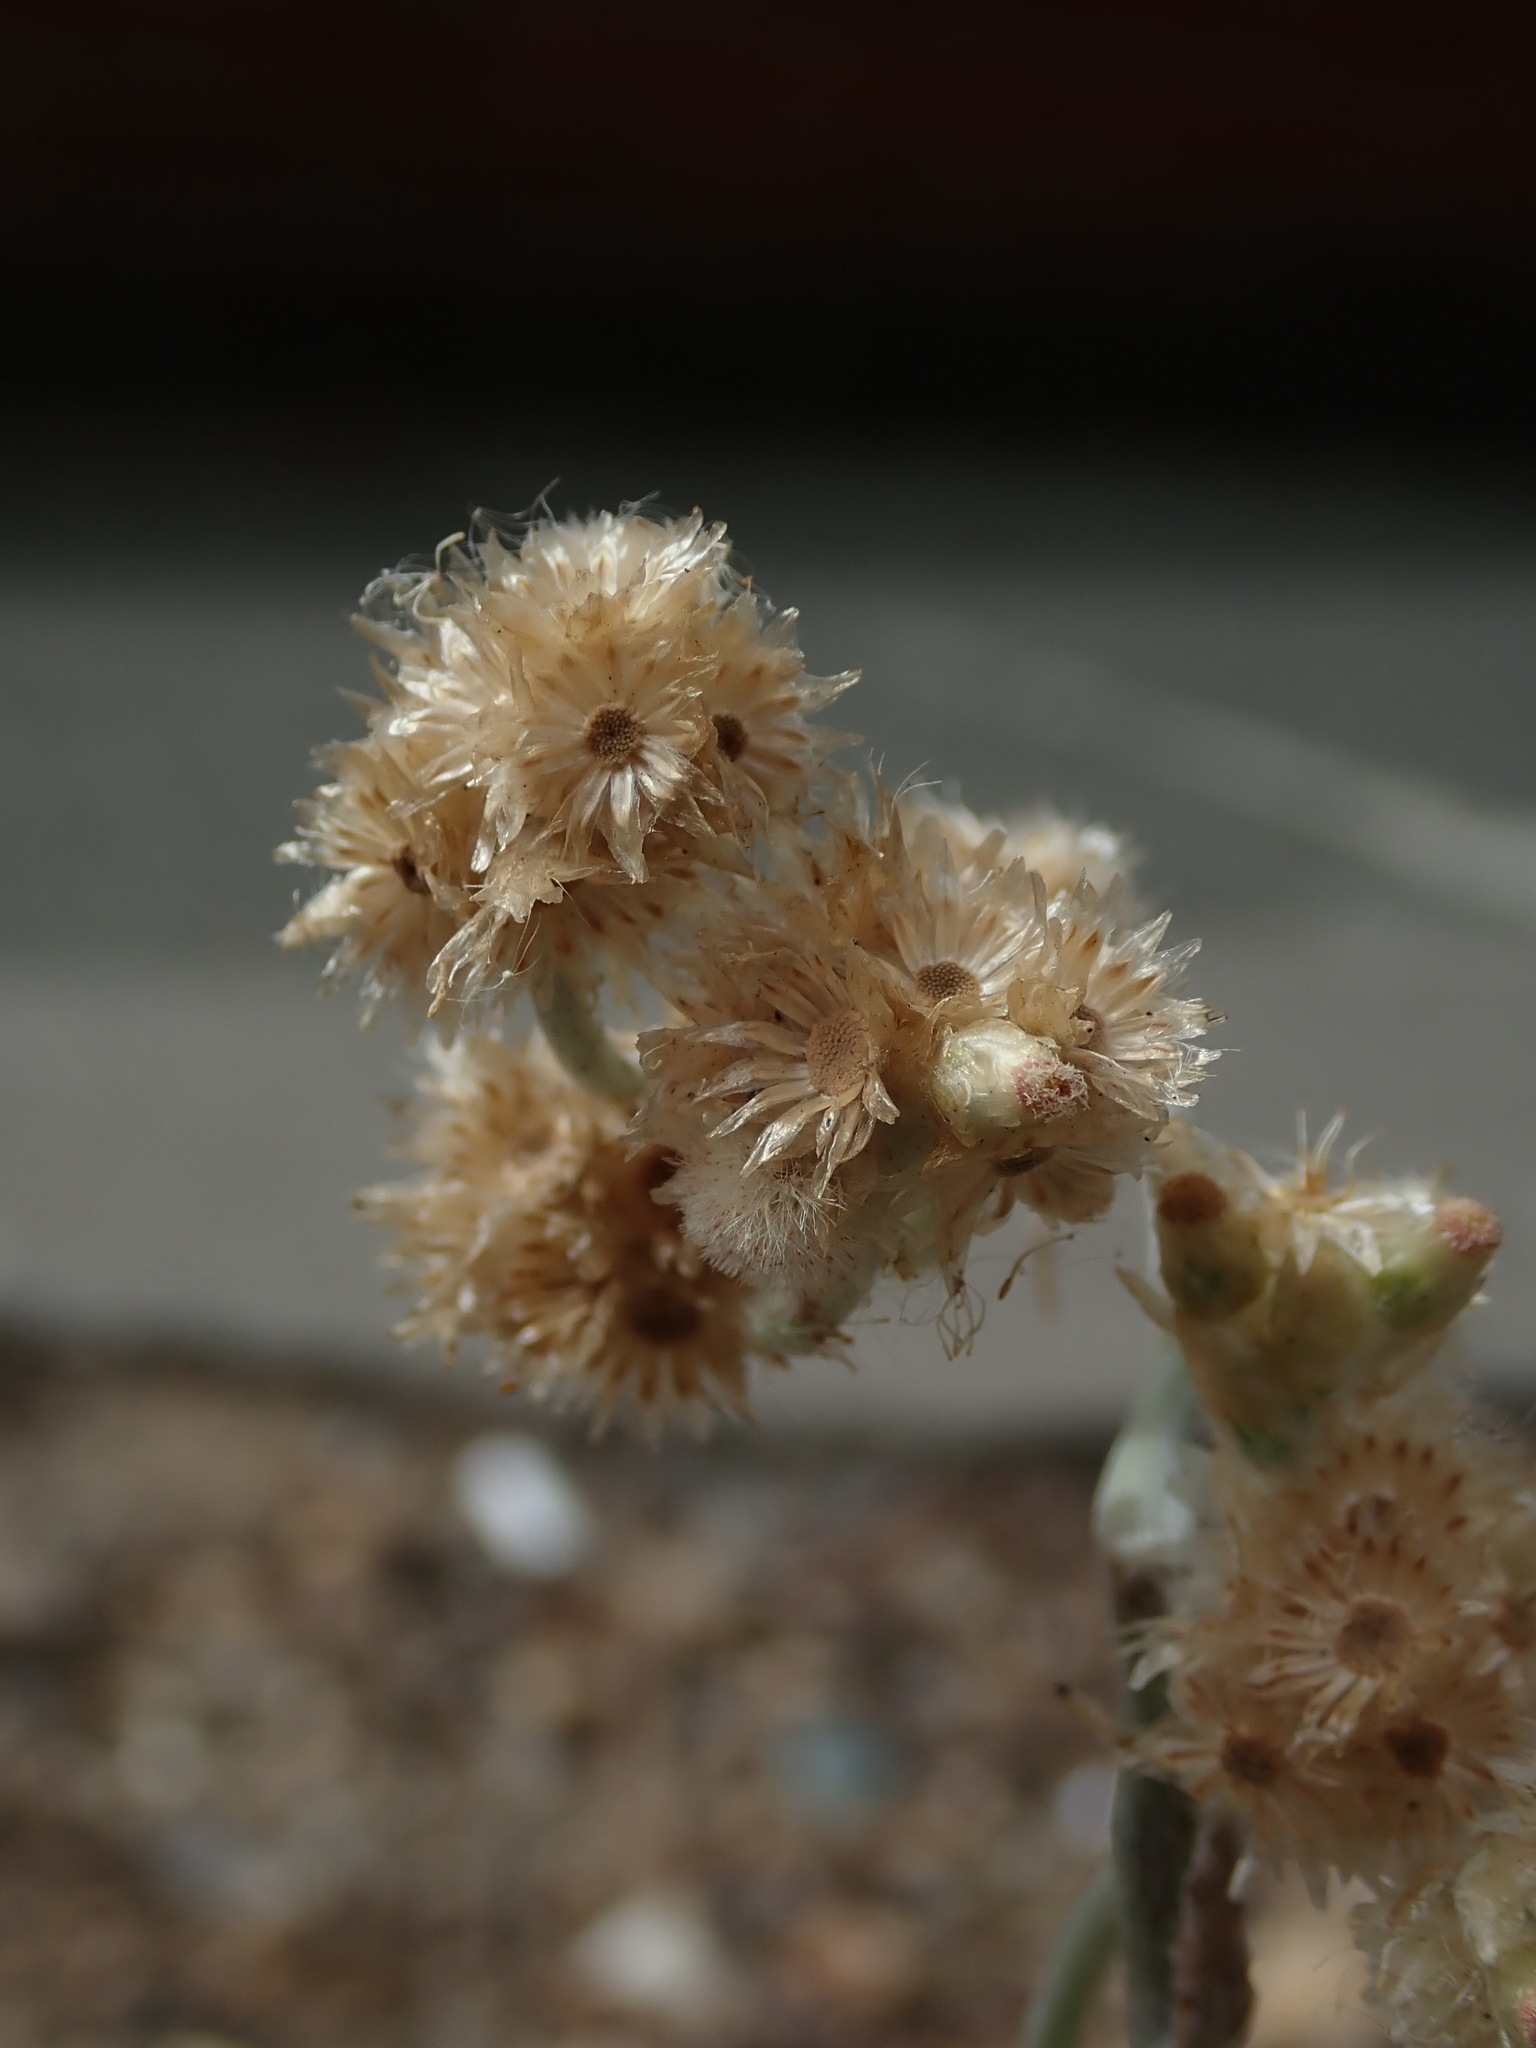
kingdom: Plantae
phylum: Tracheophyta
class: Magnoliopsida
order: Asterales
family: Asteraceae
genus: Helichrysum
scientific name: Helichrysum luteoalbum
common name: Daisy
